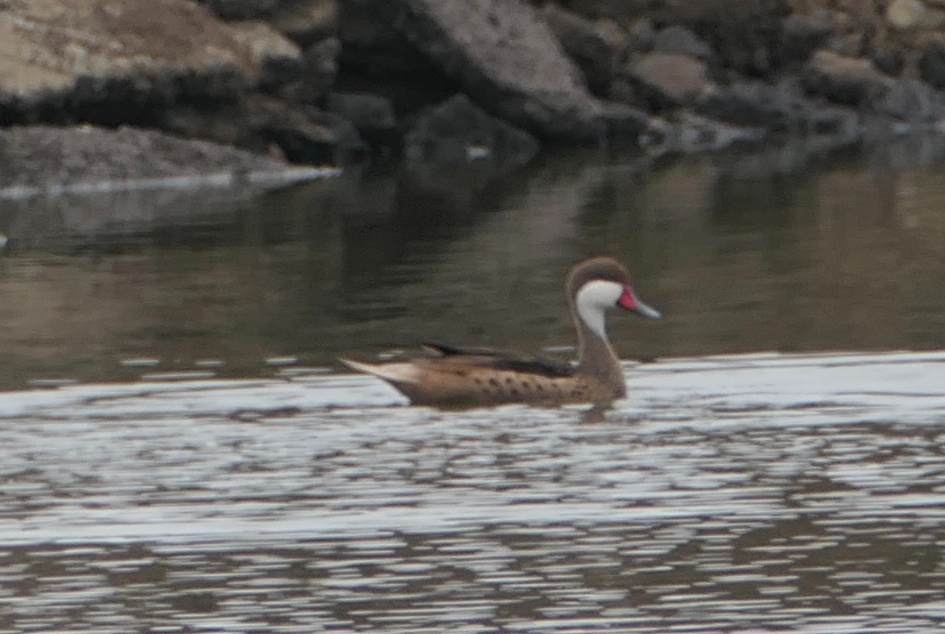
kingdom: Animalia
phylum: Chordata
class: Aves
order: Anseriformes
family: Anatidae
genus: Anas
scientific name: Anas bahamensis
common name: White-cheeked pintail
